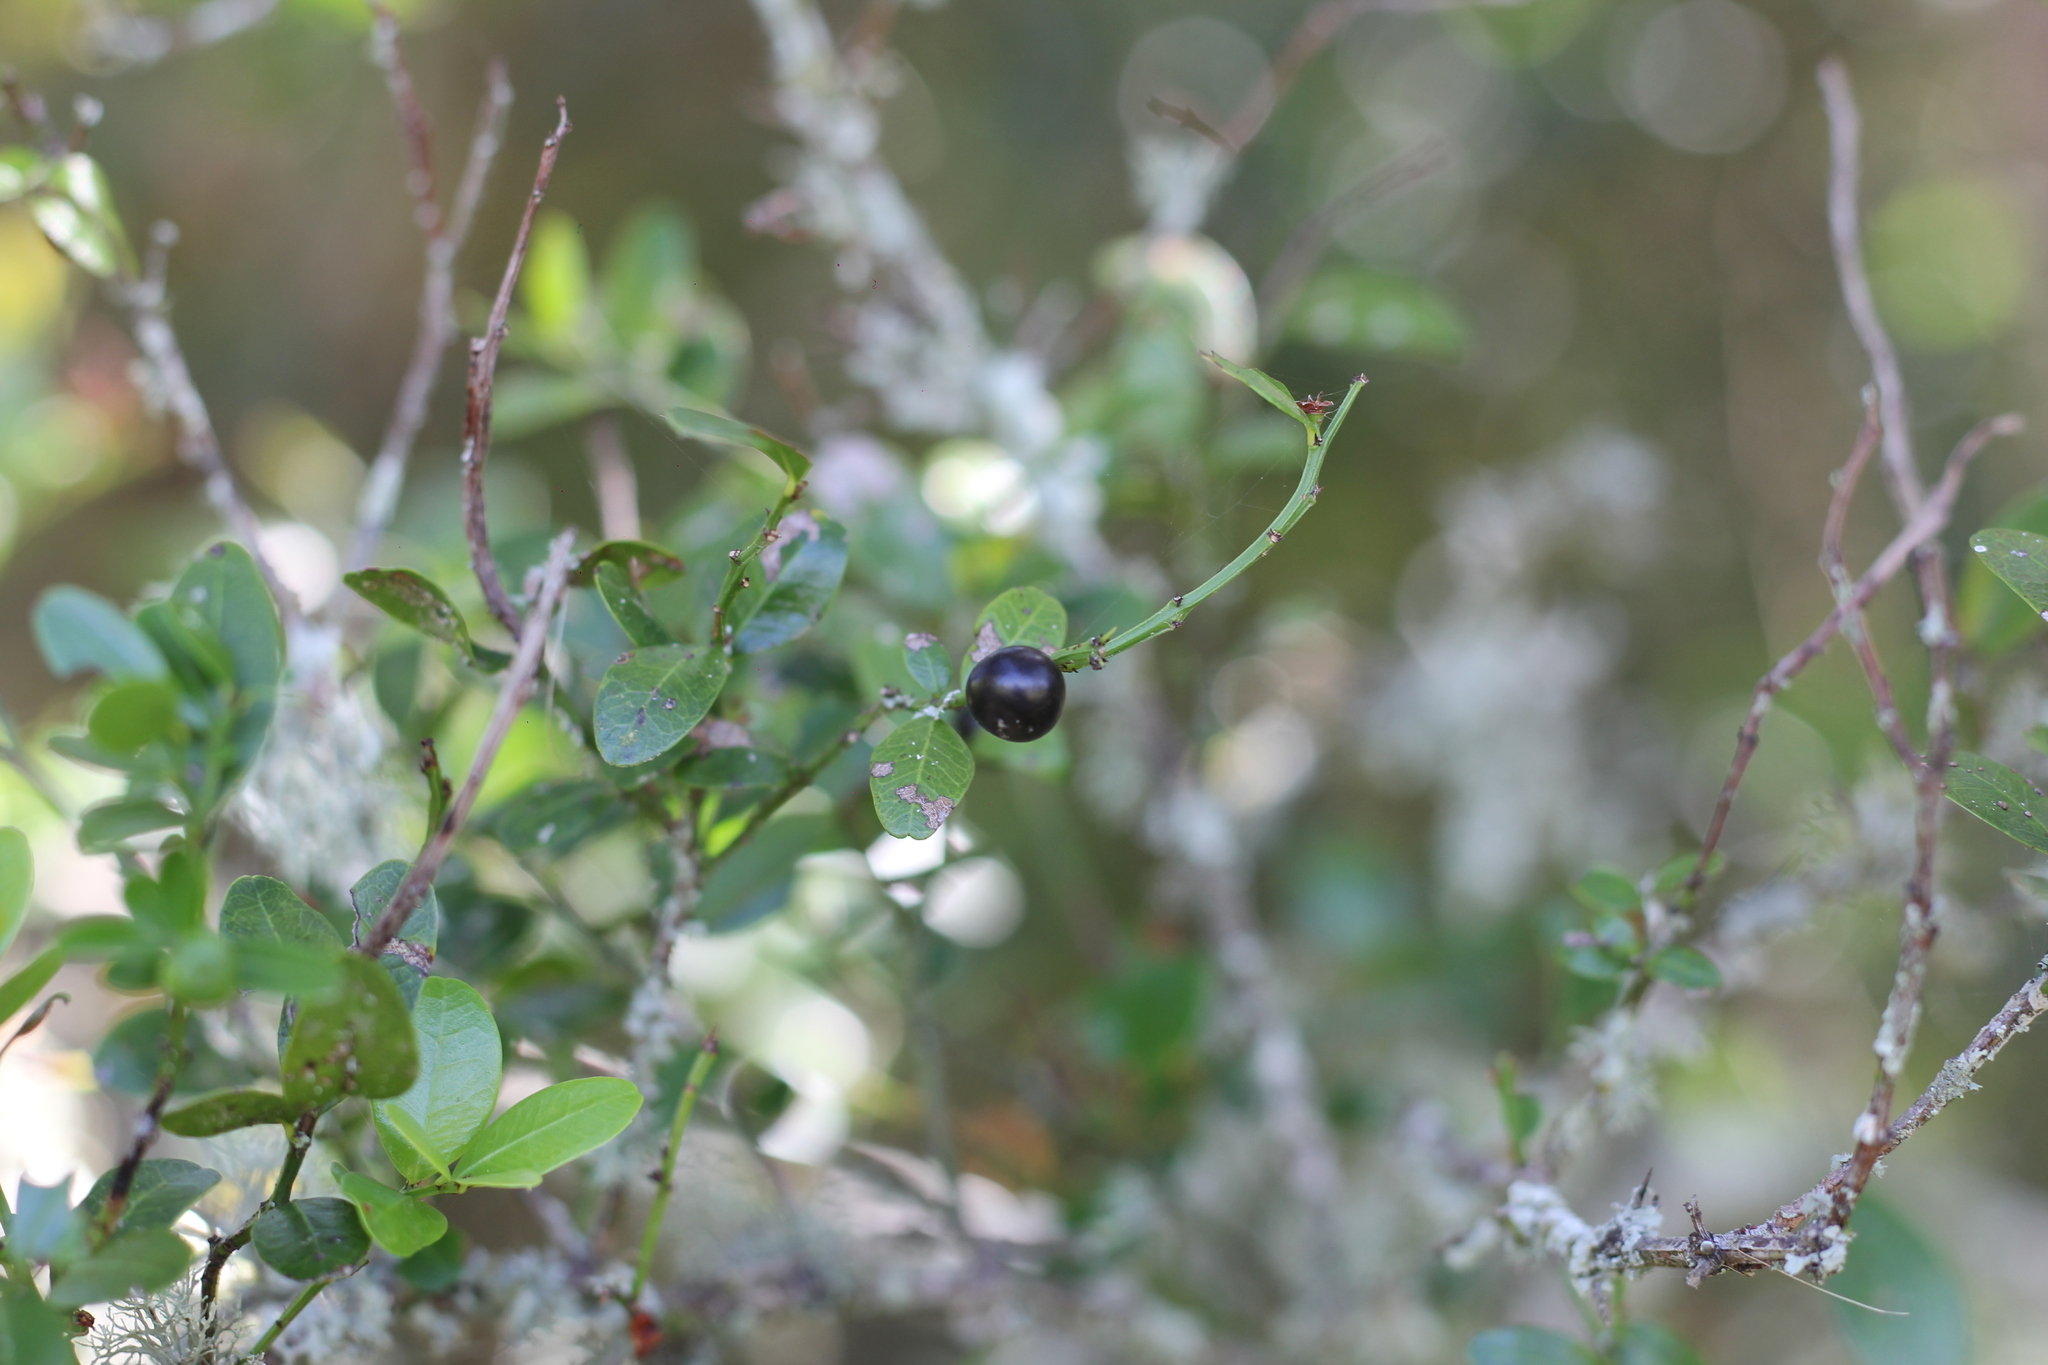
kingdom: Plantae
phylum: Tracheophyta
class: Magnoliopsida
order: Rosales
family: Rhamnaceae
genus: Scutia
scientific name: Scutia buxifolia
